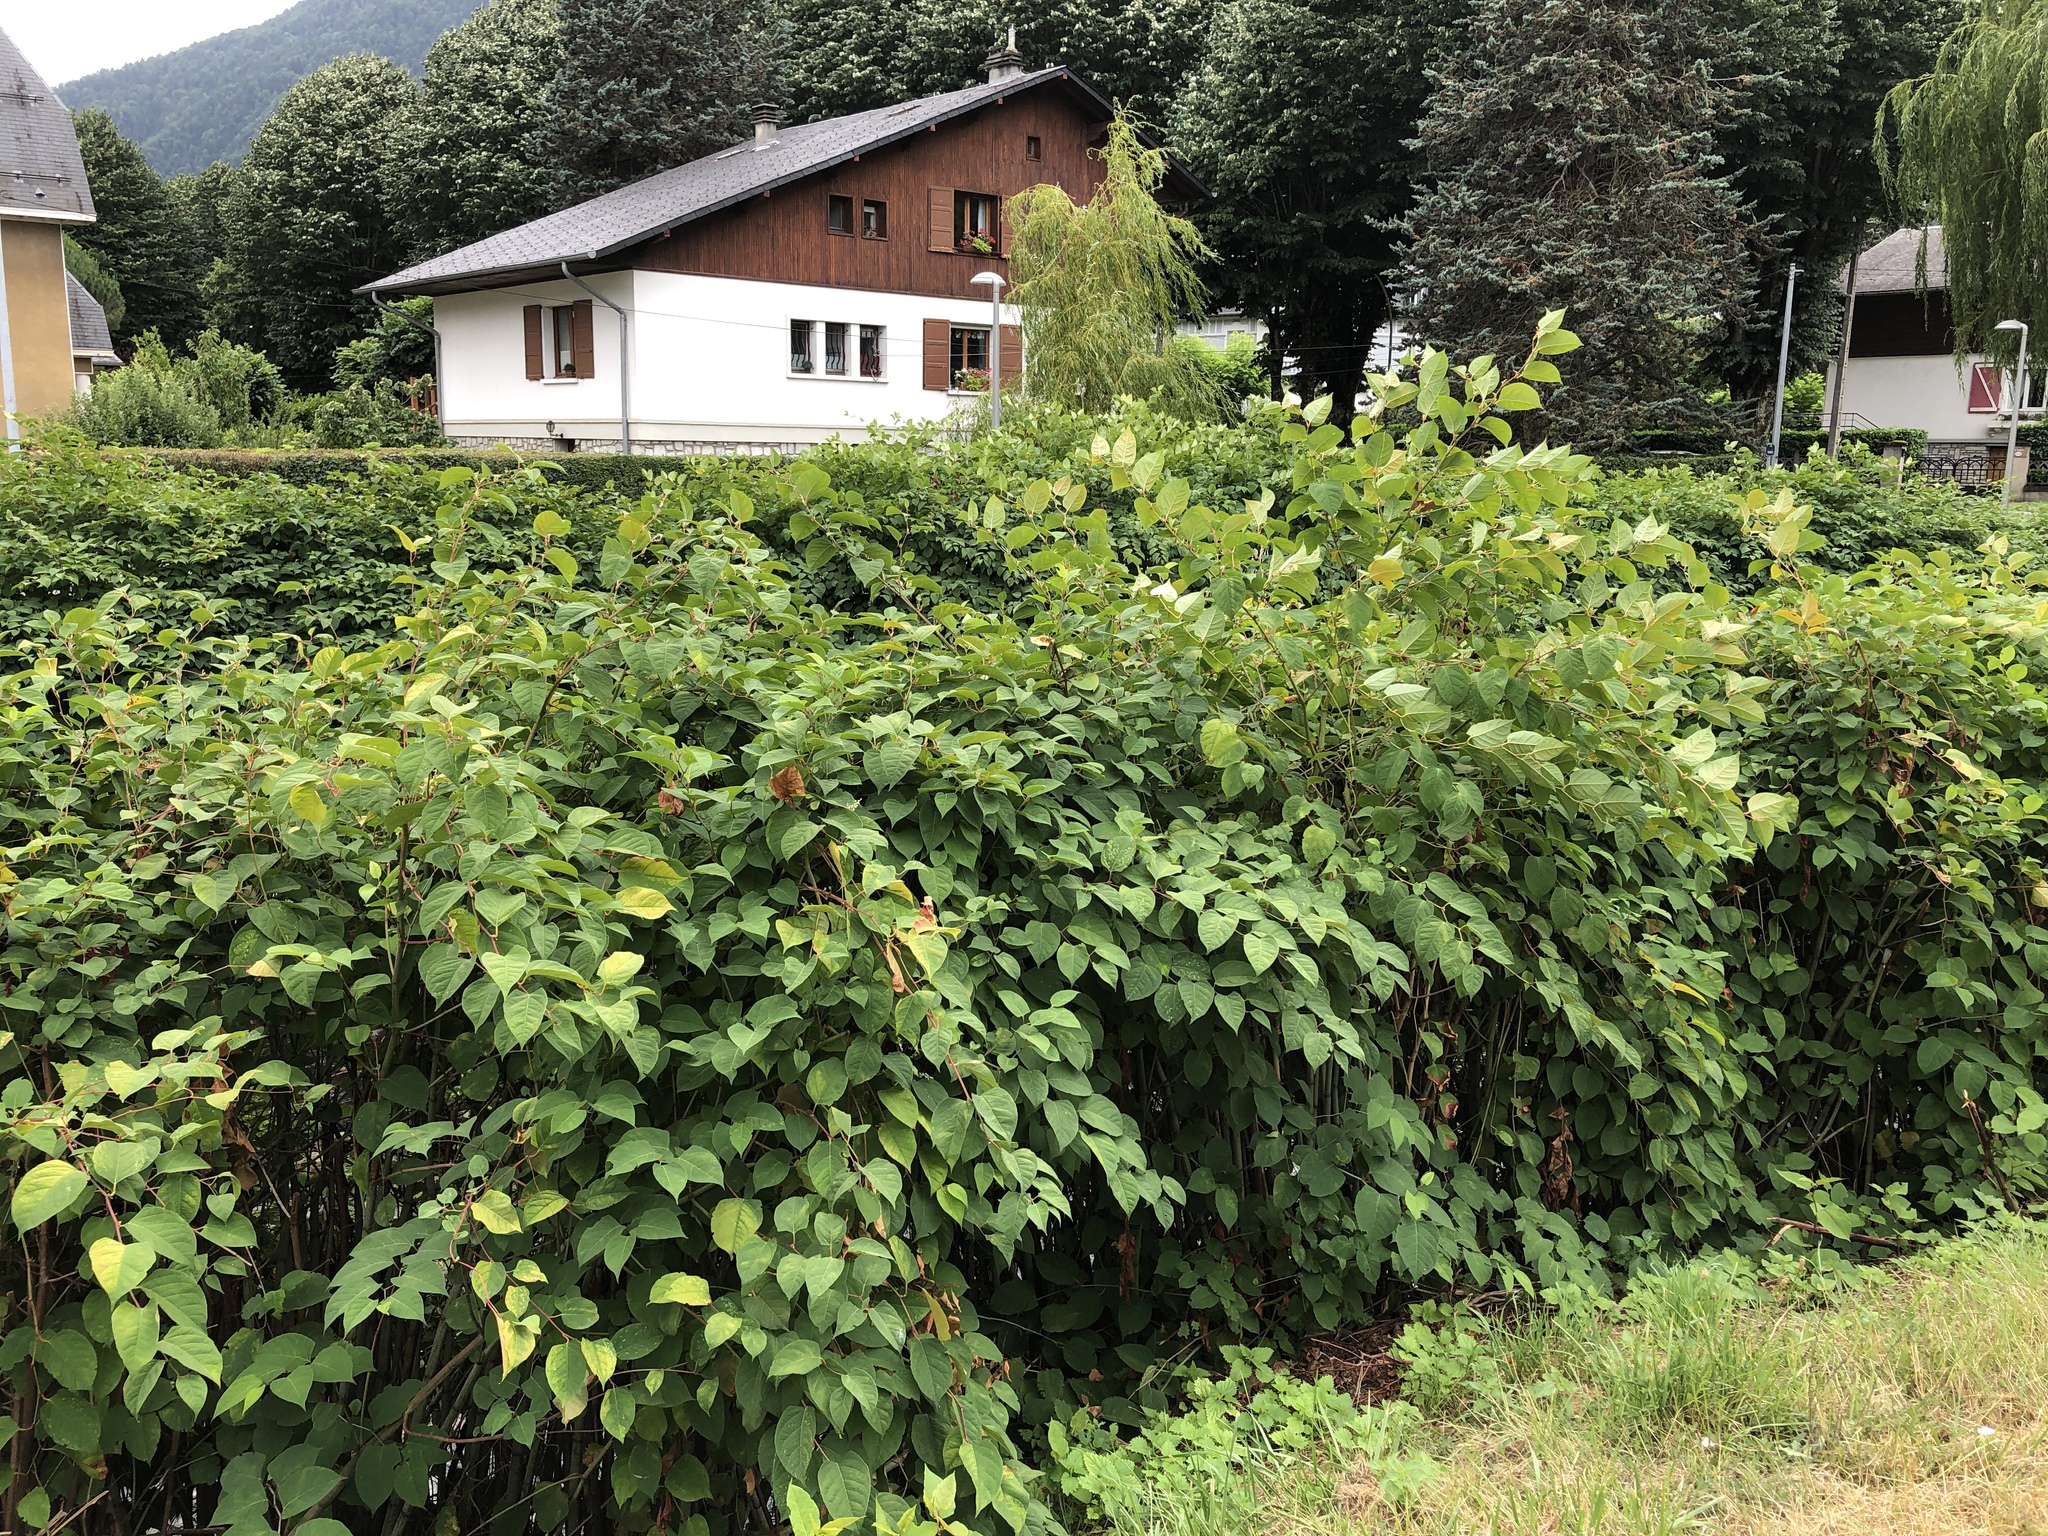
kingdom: Plantae
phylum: Tracheophyta
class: Magnoliopsida
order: Caryophyllales
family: Polygonaceae
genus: Reynoutria
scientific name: Reynoutria japonica
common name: Japanese knotweed
